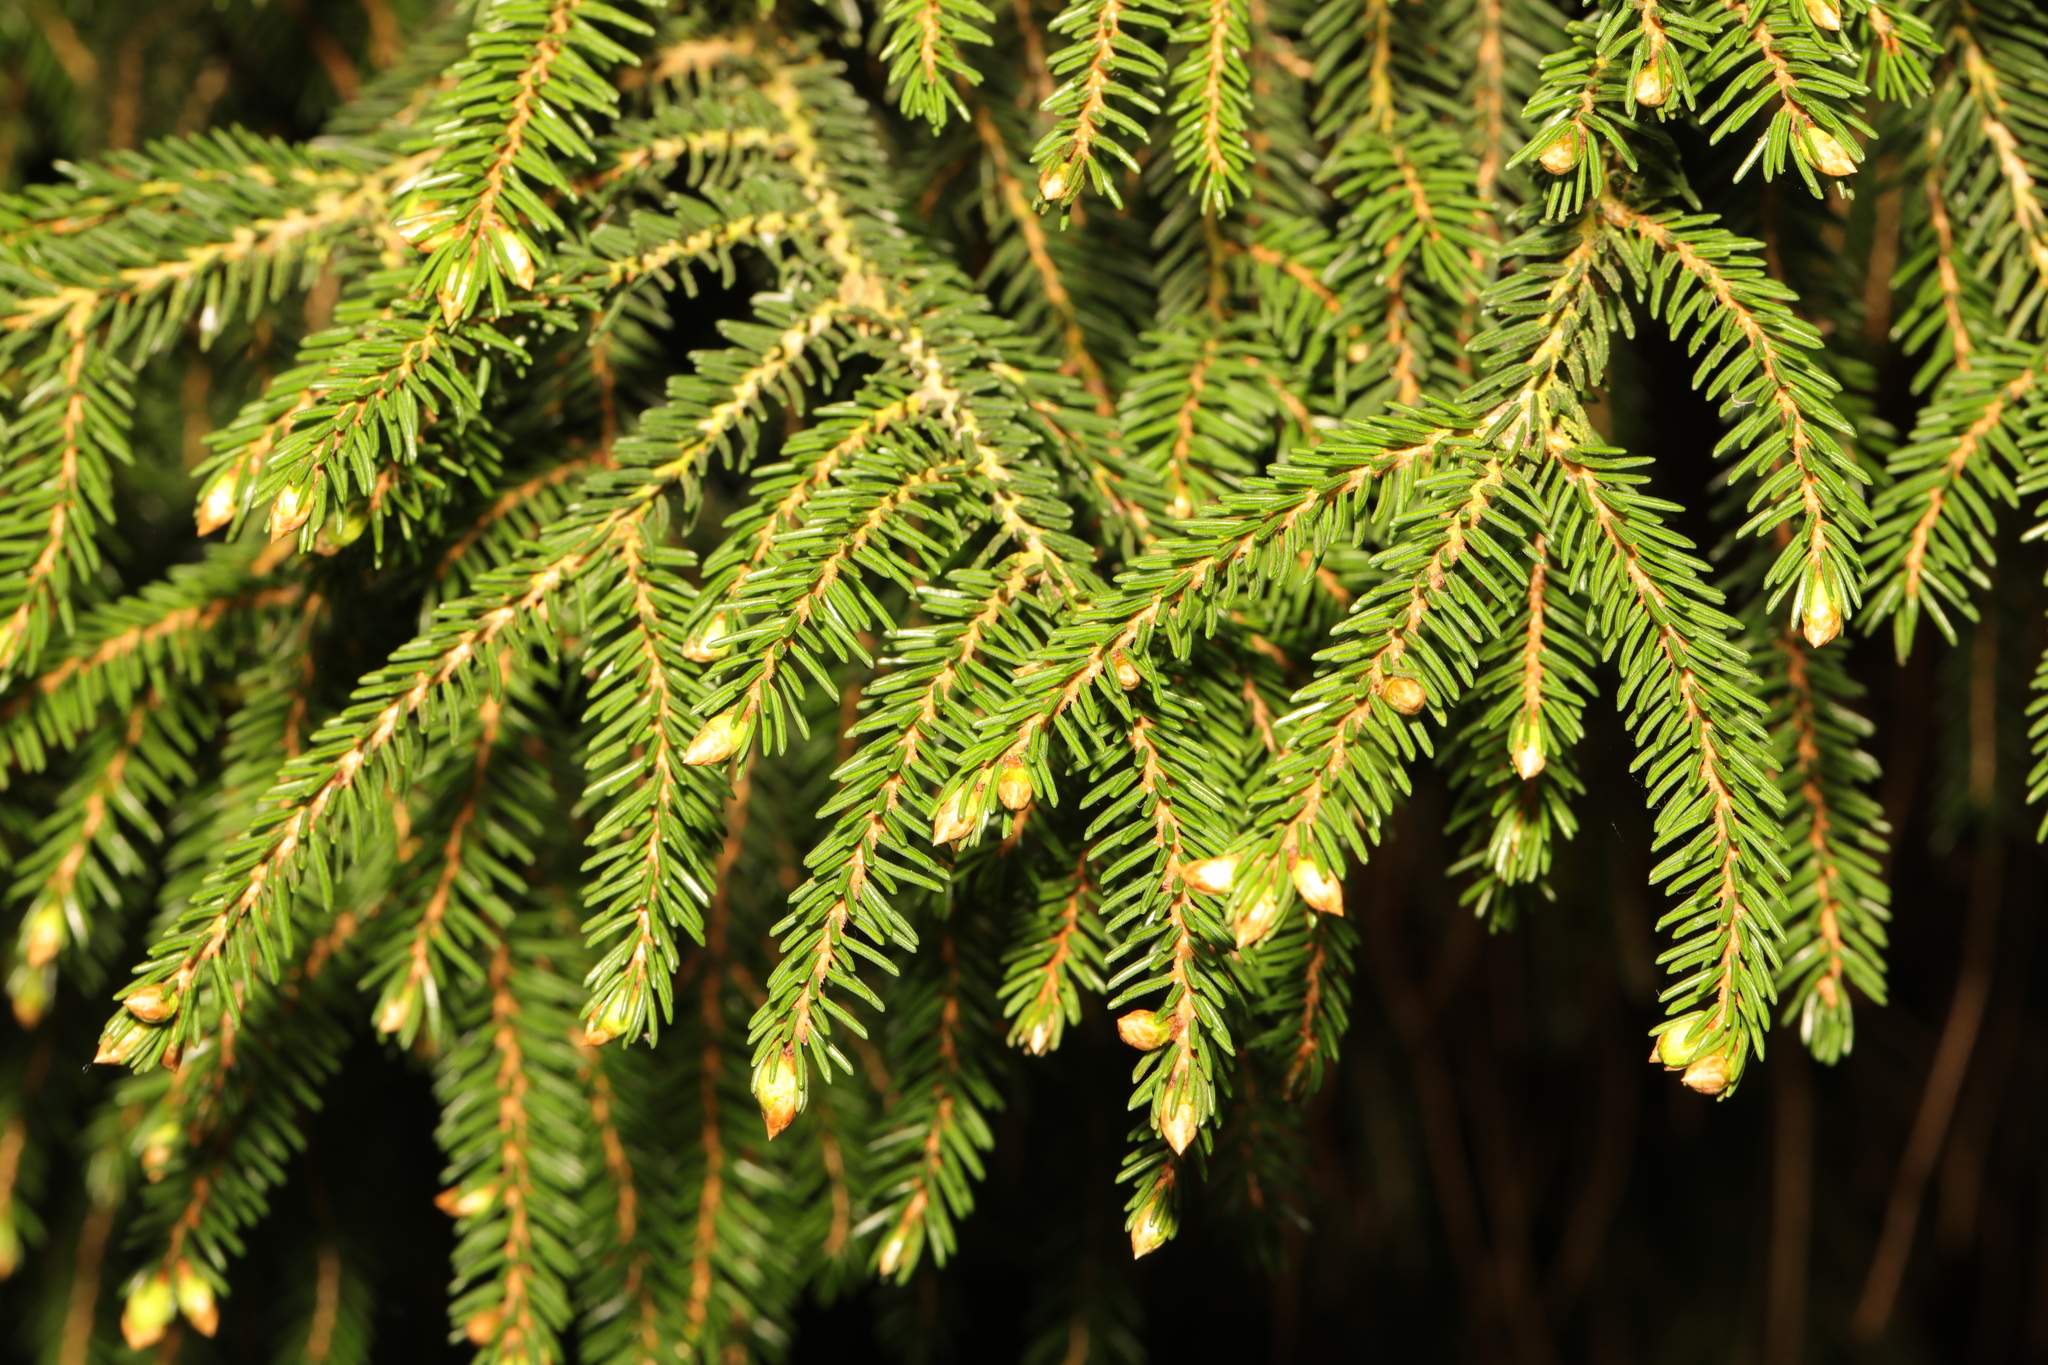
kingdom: Plantae
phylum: Tracheophyta
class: Pinopsida
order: Pinales
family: Pinaceae
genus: Picea
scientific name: Picea abies
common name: Norway spruce
